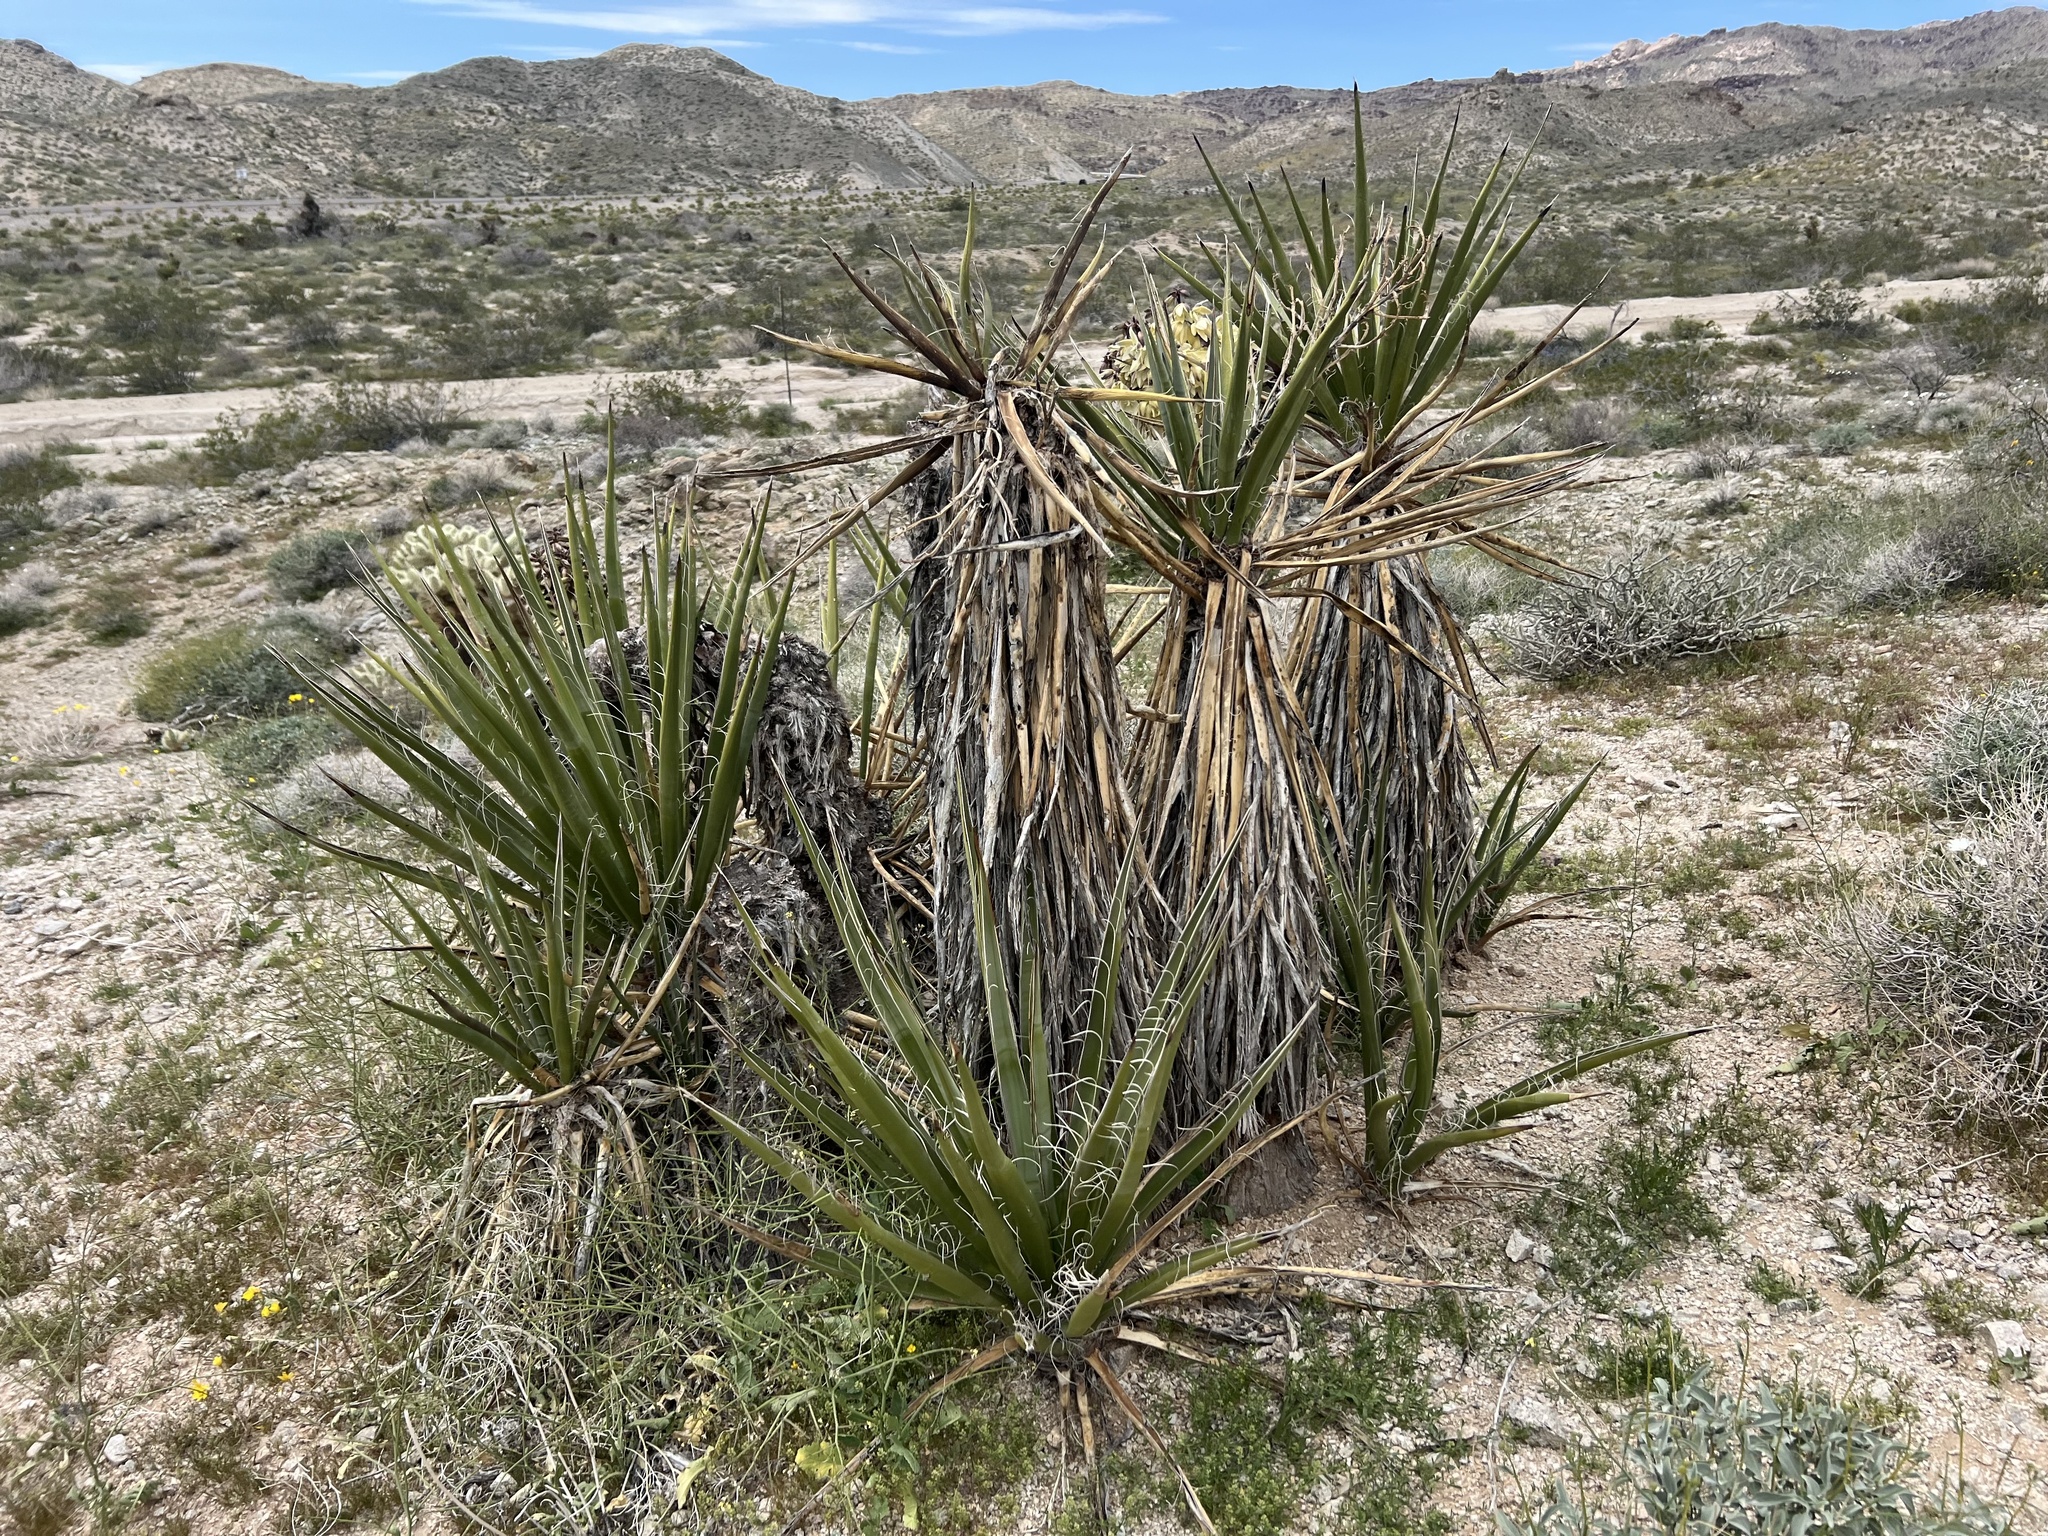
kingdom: Plantae
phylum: Tracheophyta
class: Liliopsida
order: Asparagales
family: Asparagaceae
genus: Yucca
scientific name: Yucca schidigera
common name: Mojave yucca
